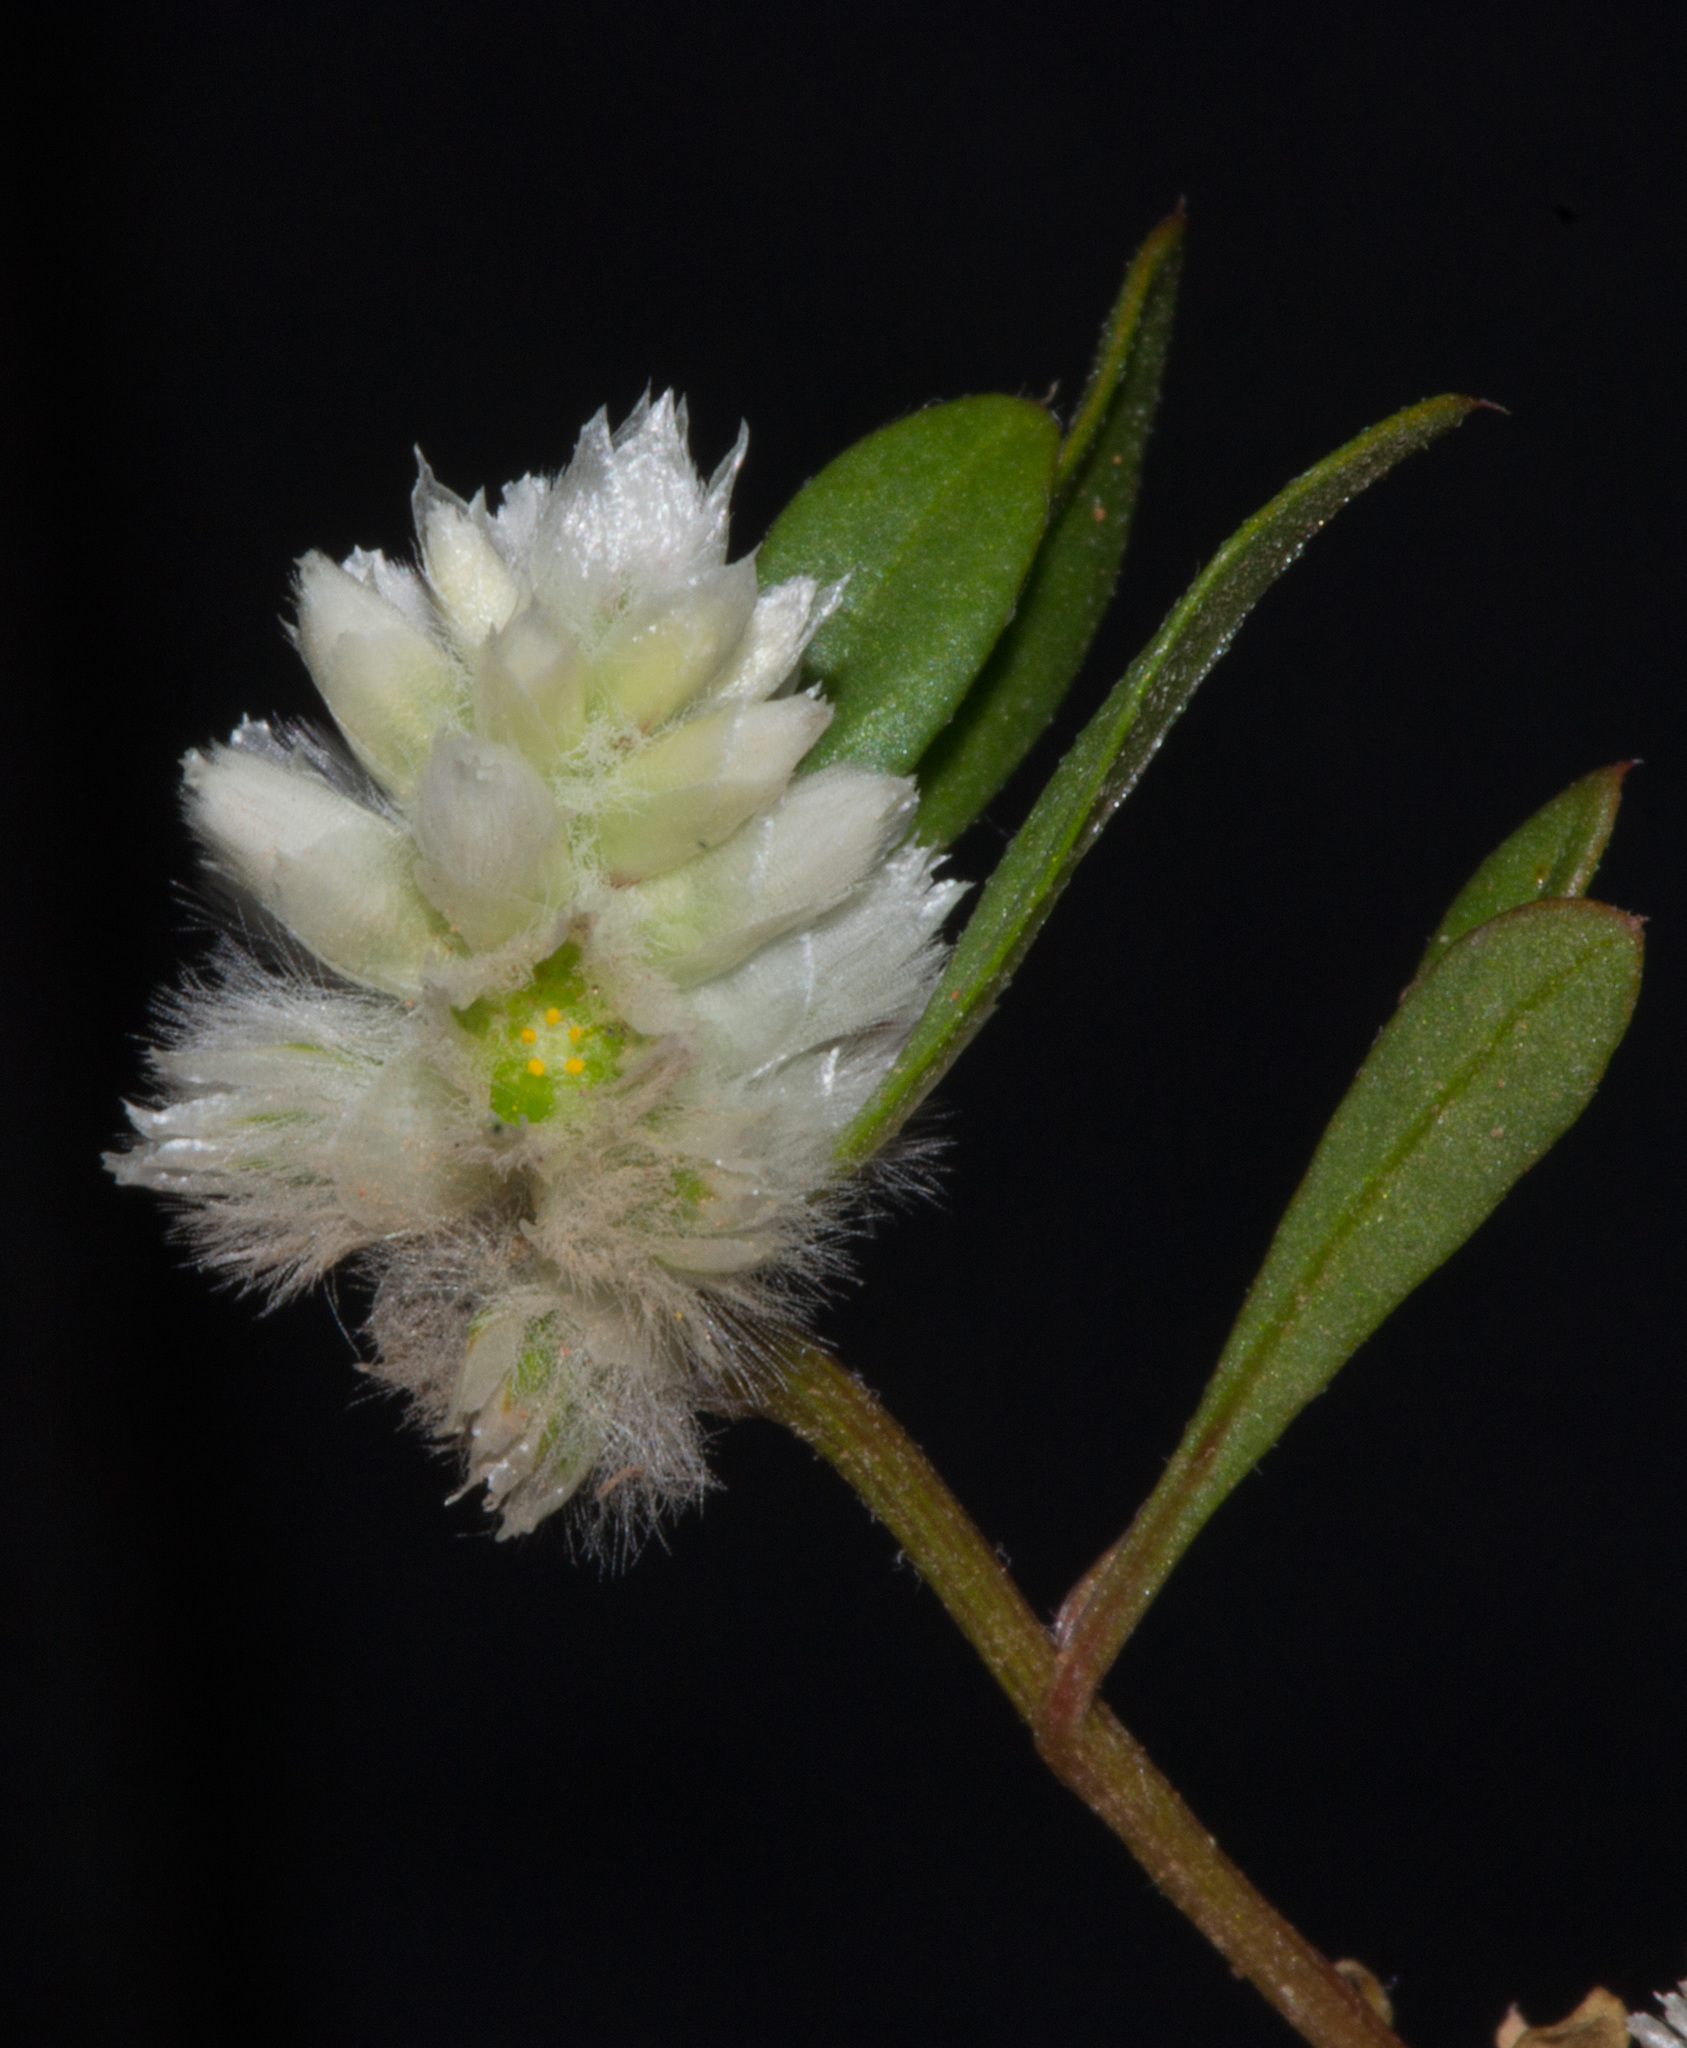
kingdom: Plantae
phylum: Tracheophyta
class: Magnoliopsida
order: Caryophyllales
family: Amaranthaceae
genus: Ptilotus
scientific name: Ptilotus humilis
